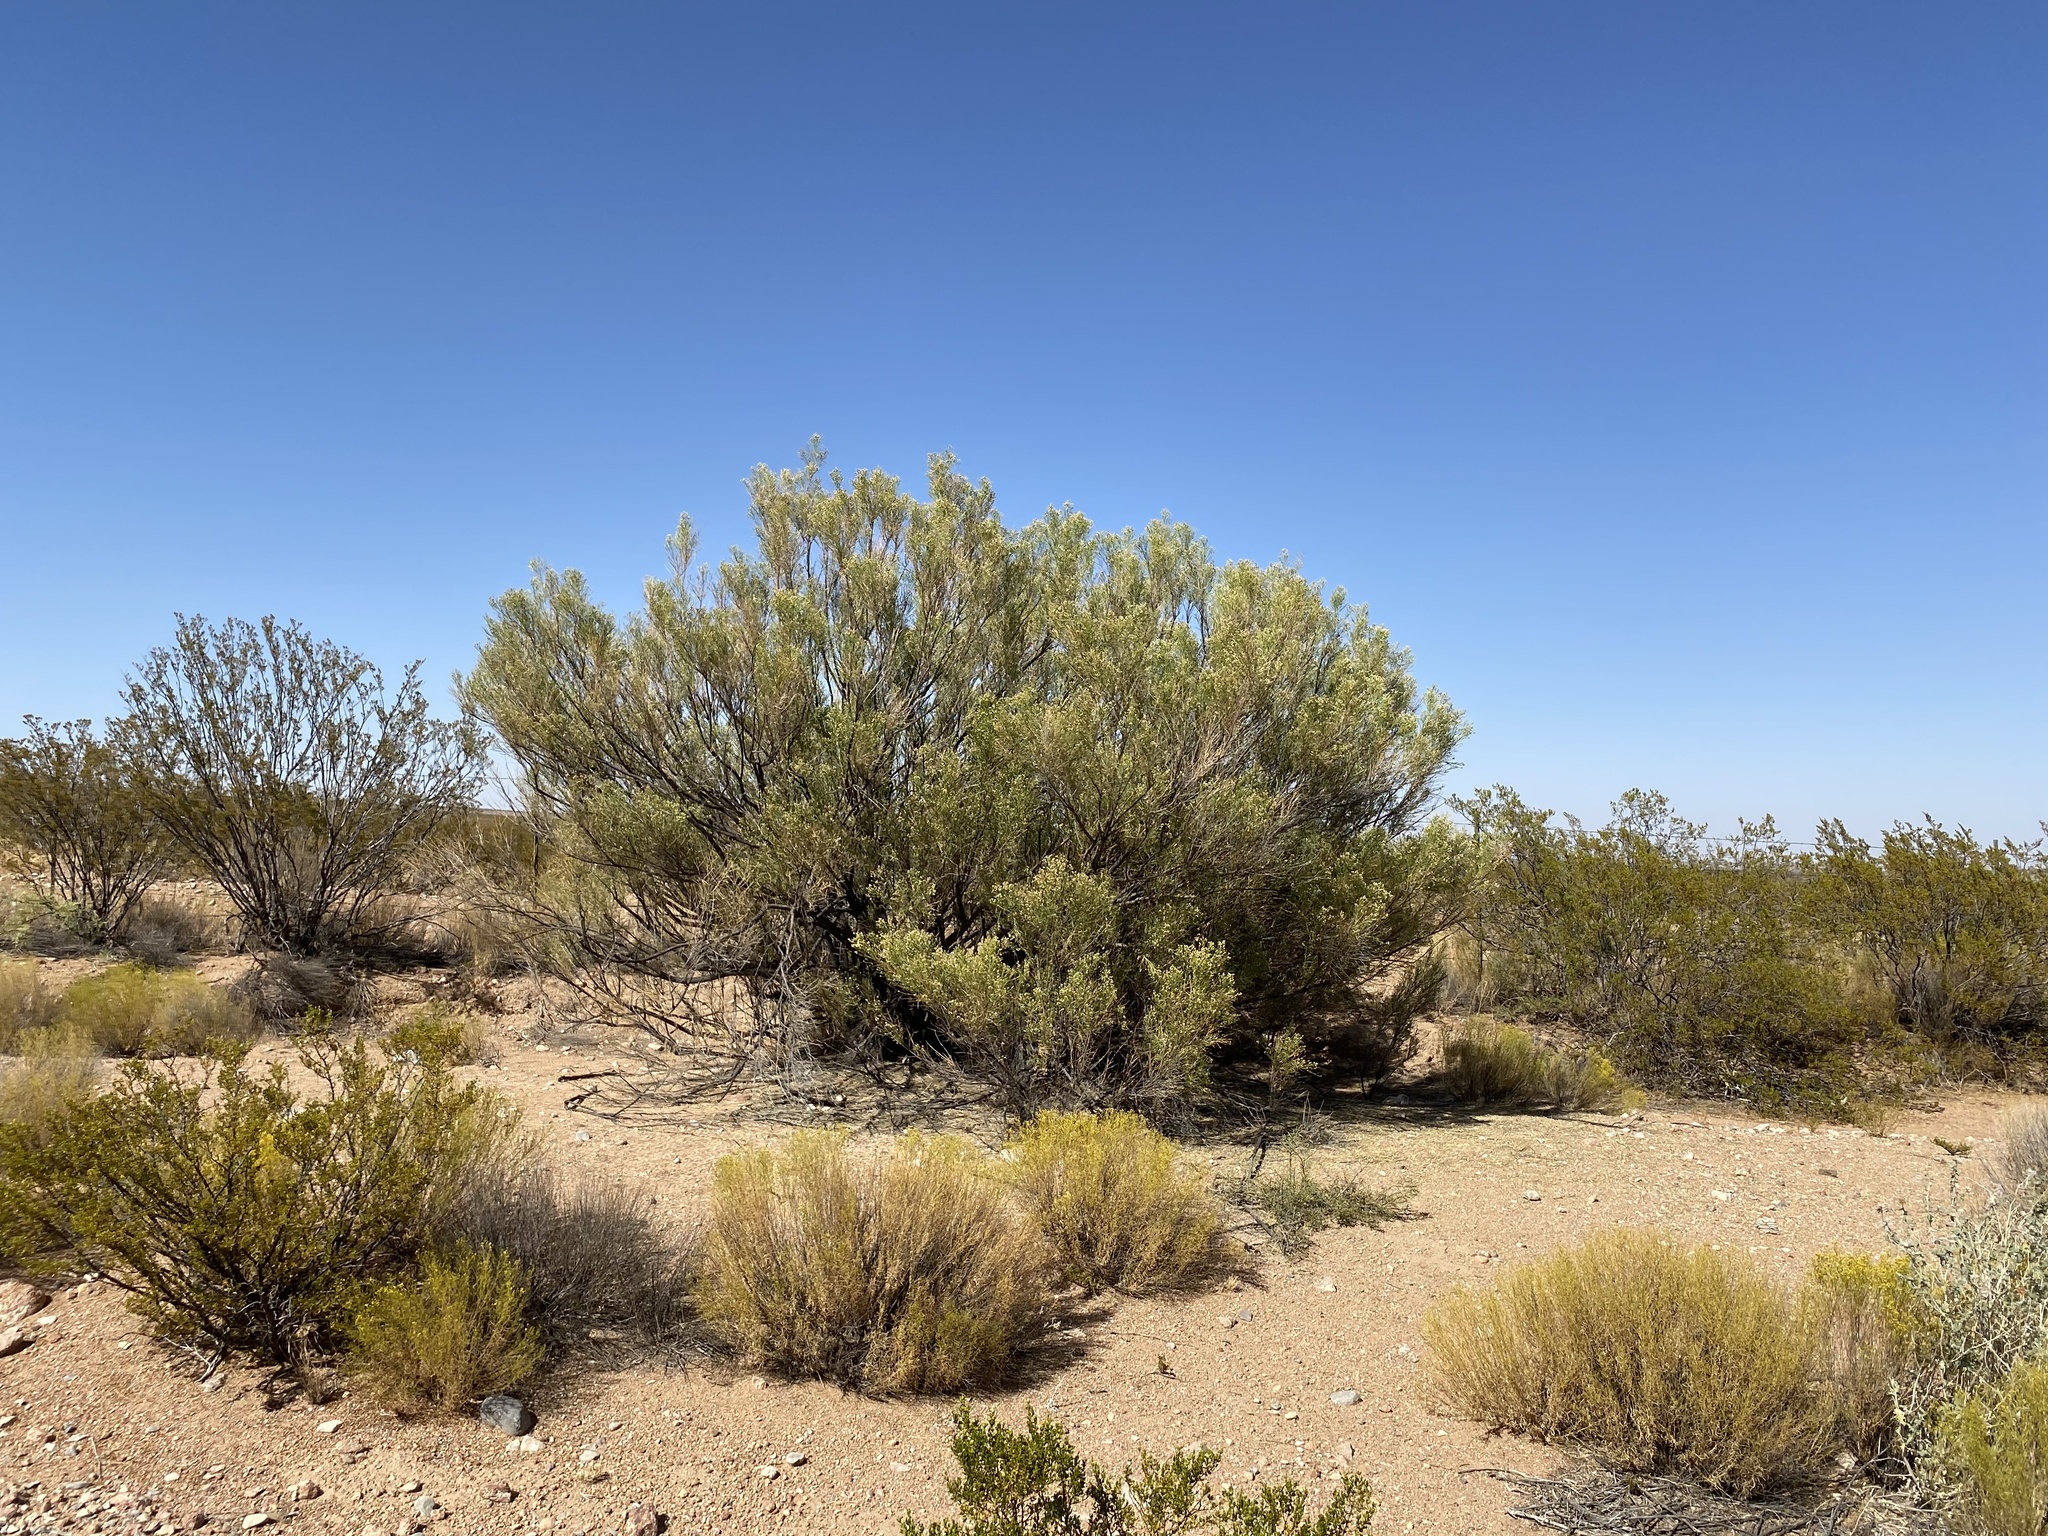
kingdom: Plantae
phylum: Tracheophyta
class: Magnoliopsida
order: Asterales
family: Asteraceae
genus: Baccharis
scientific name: Baccharis sarothroides
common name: Desert-broom
